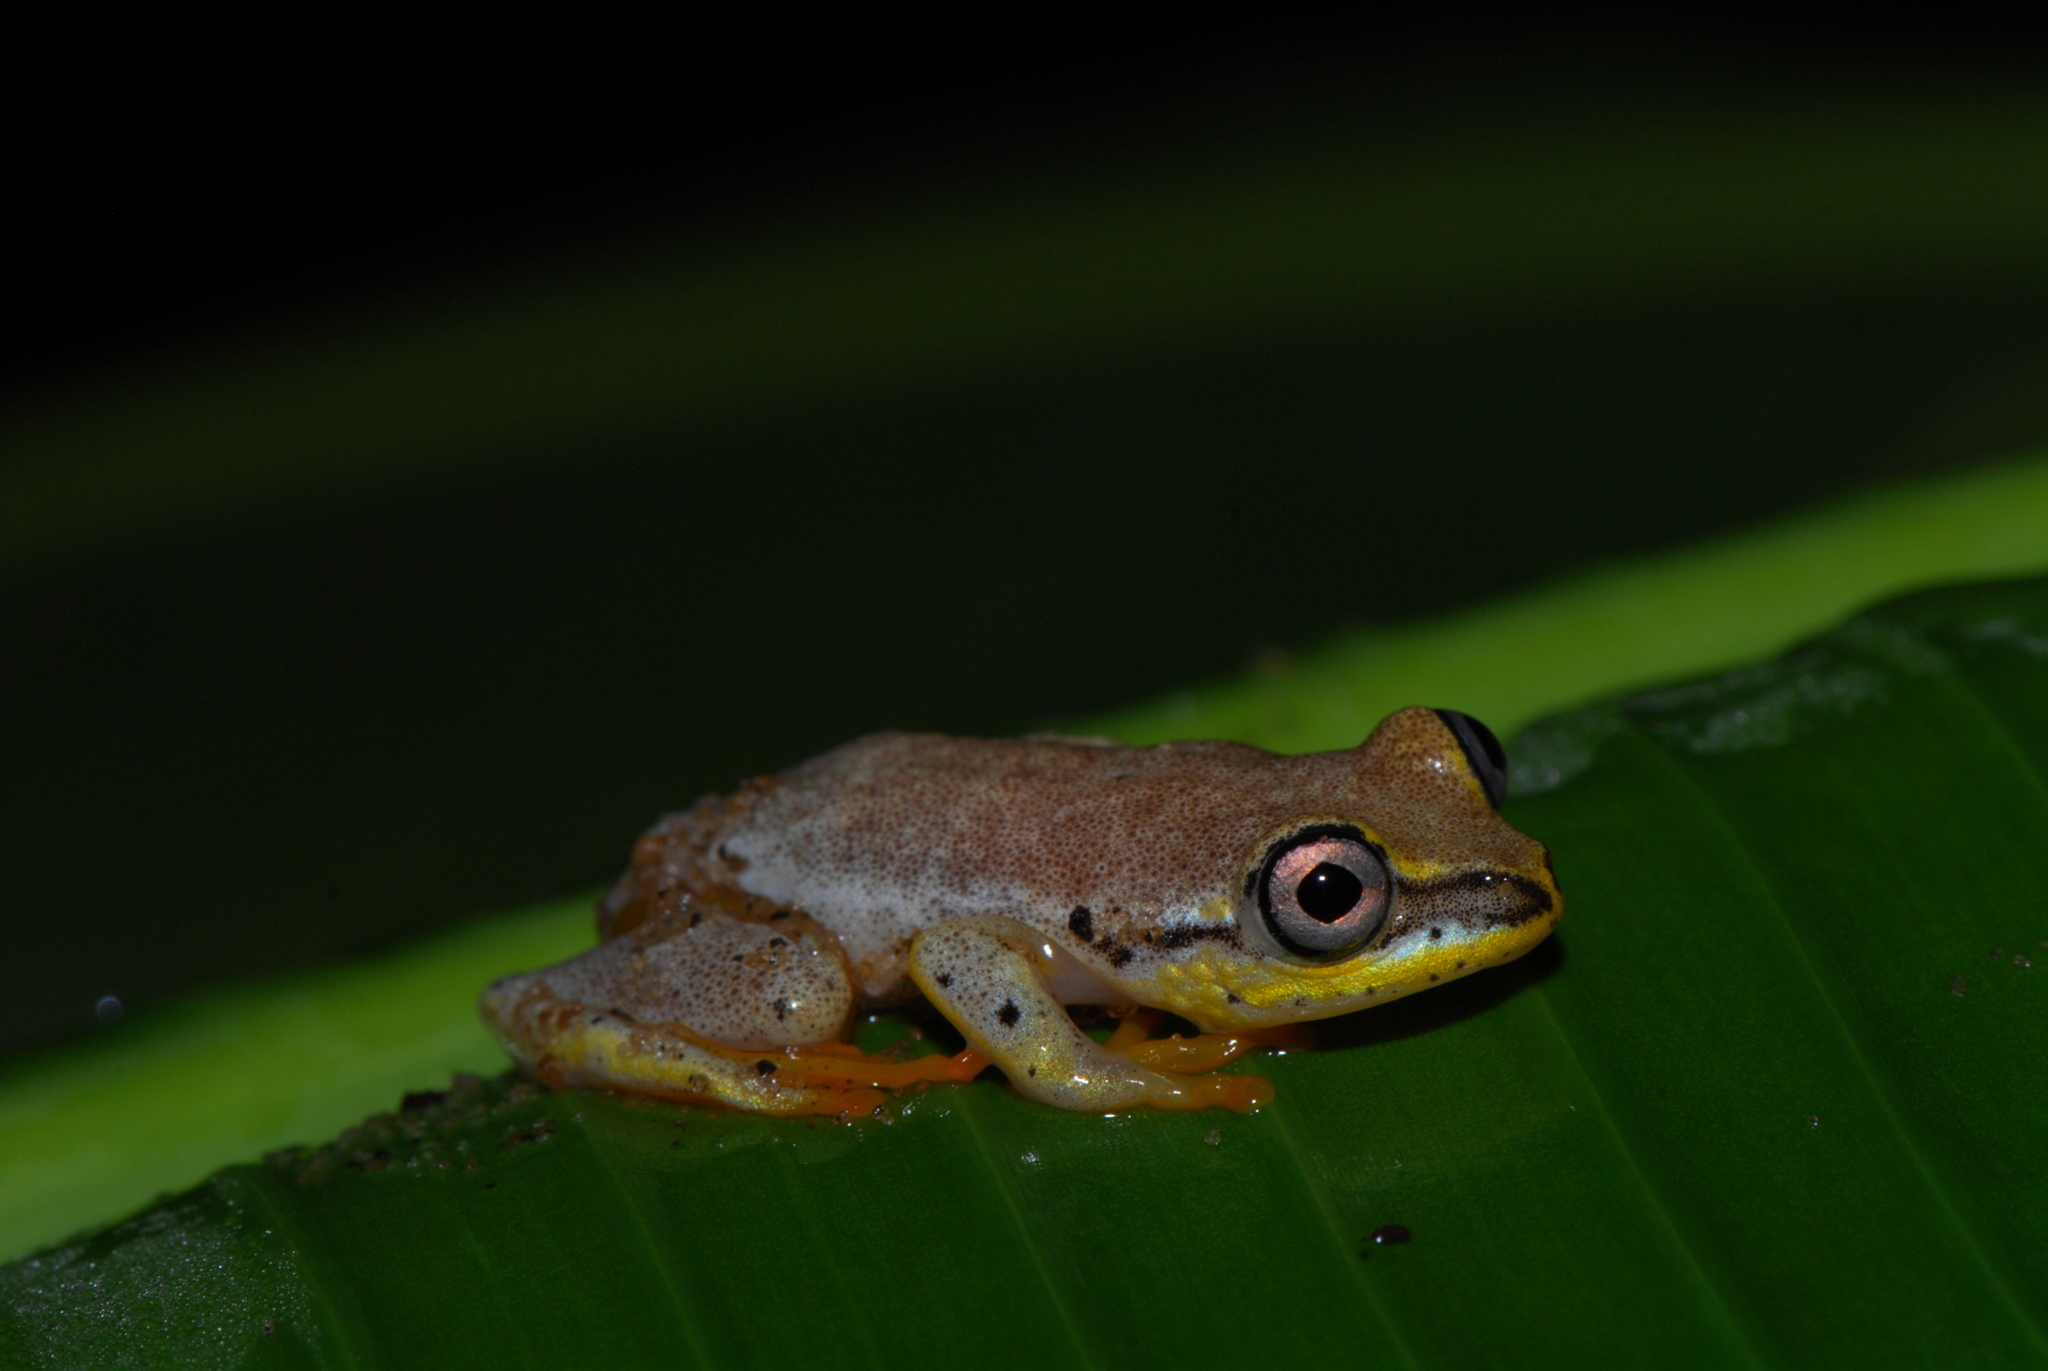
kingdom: Animalia
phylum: Chordata
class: Amphibia
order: Anura
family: Hyperoliidae
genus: Heterixalus
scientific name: Heterixalus madagascariensis
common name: Madagascar reed frog
